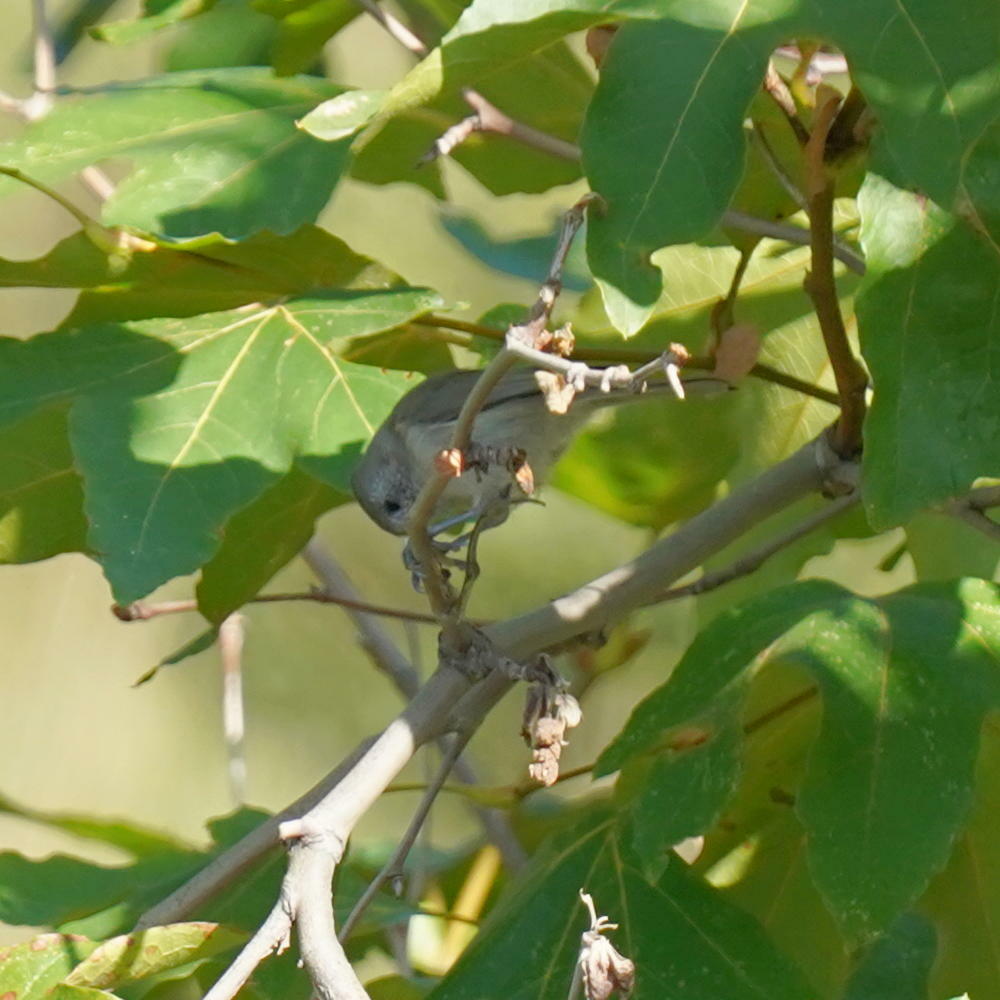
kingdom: Animalia
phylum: Chordata
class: Aves
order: Passeriformes
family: Paridae
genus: Baeolophus
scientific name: Baeolophus inornatus
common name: Oak titmouse
